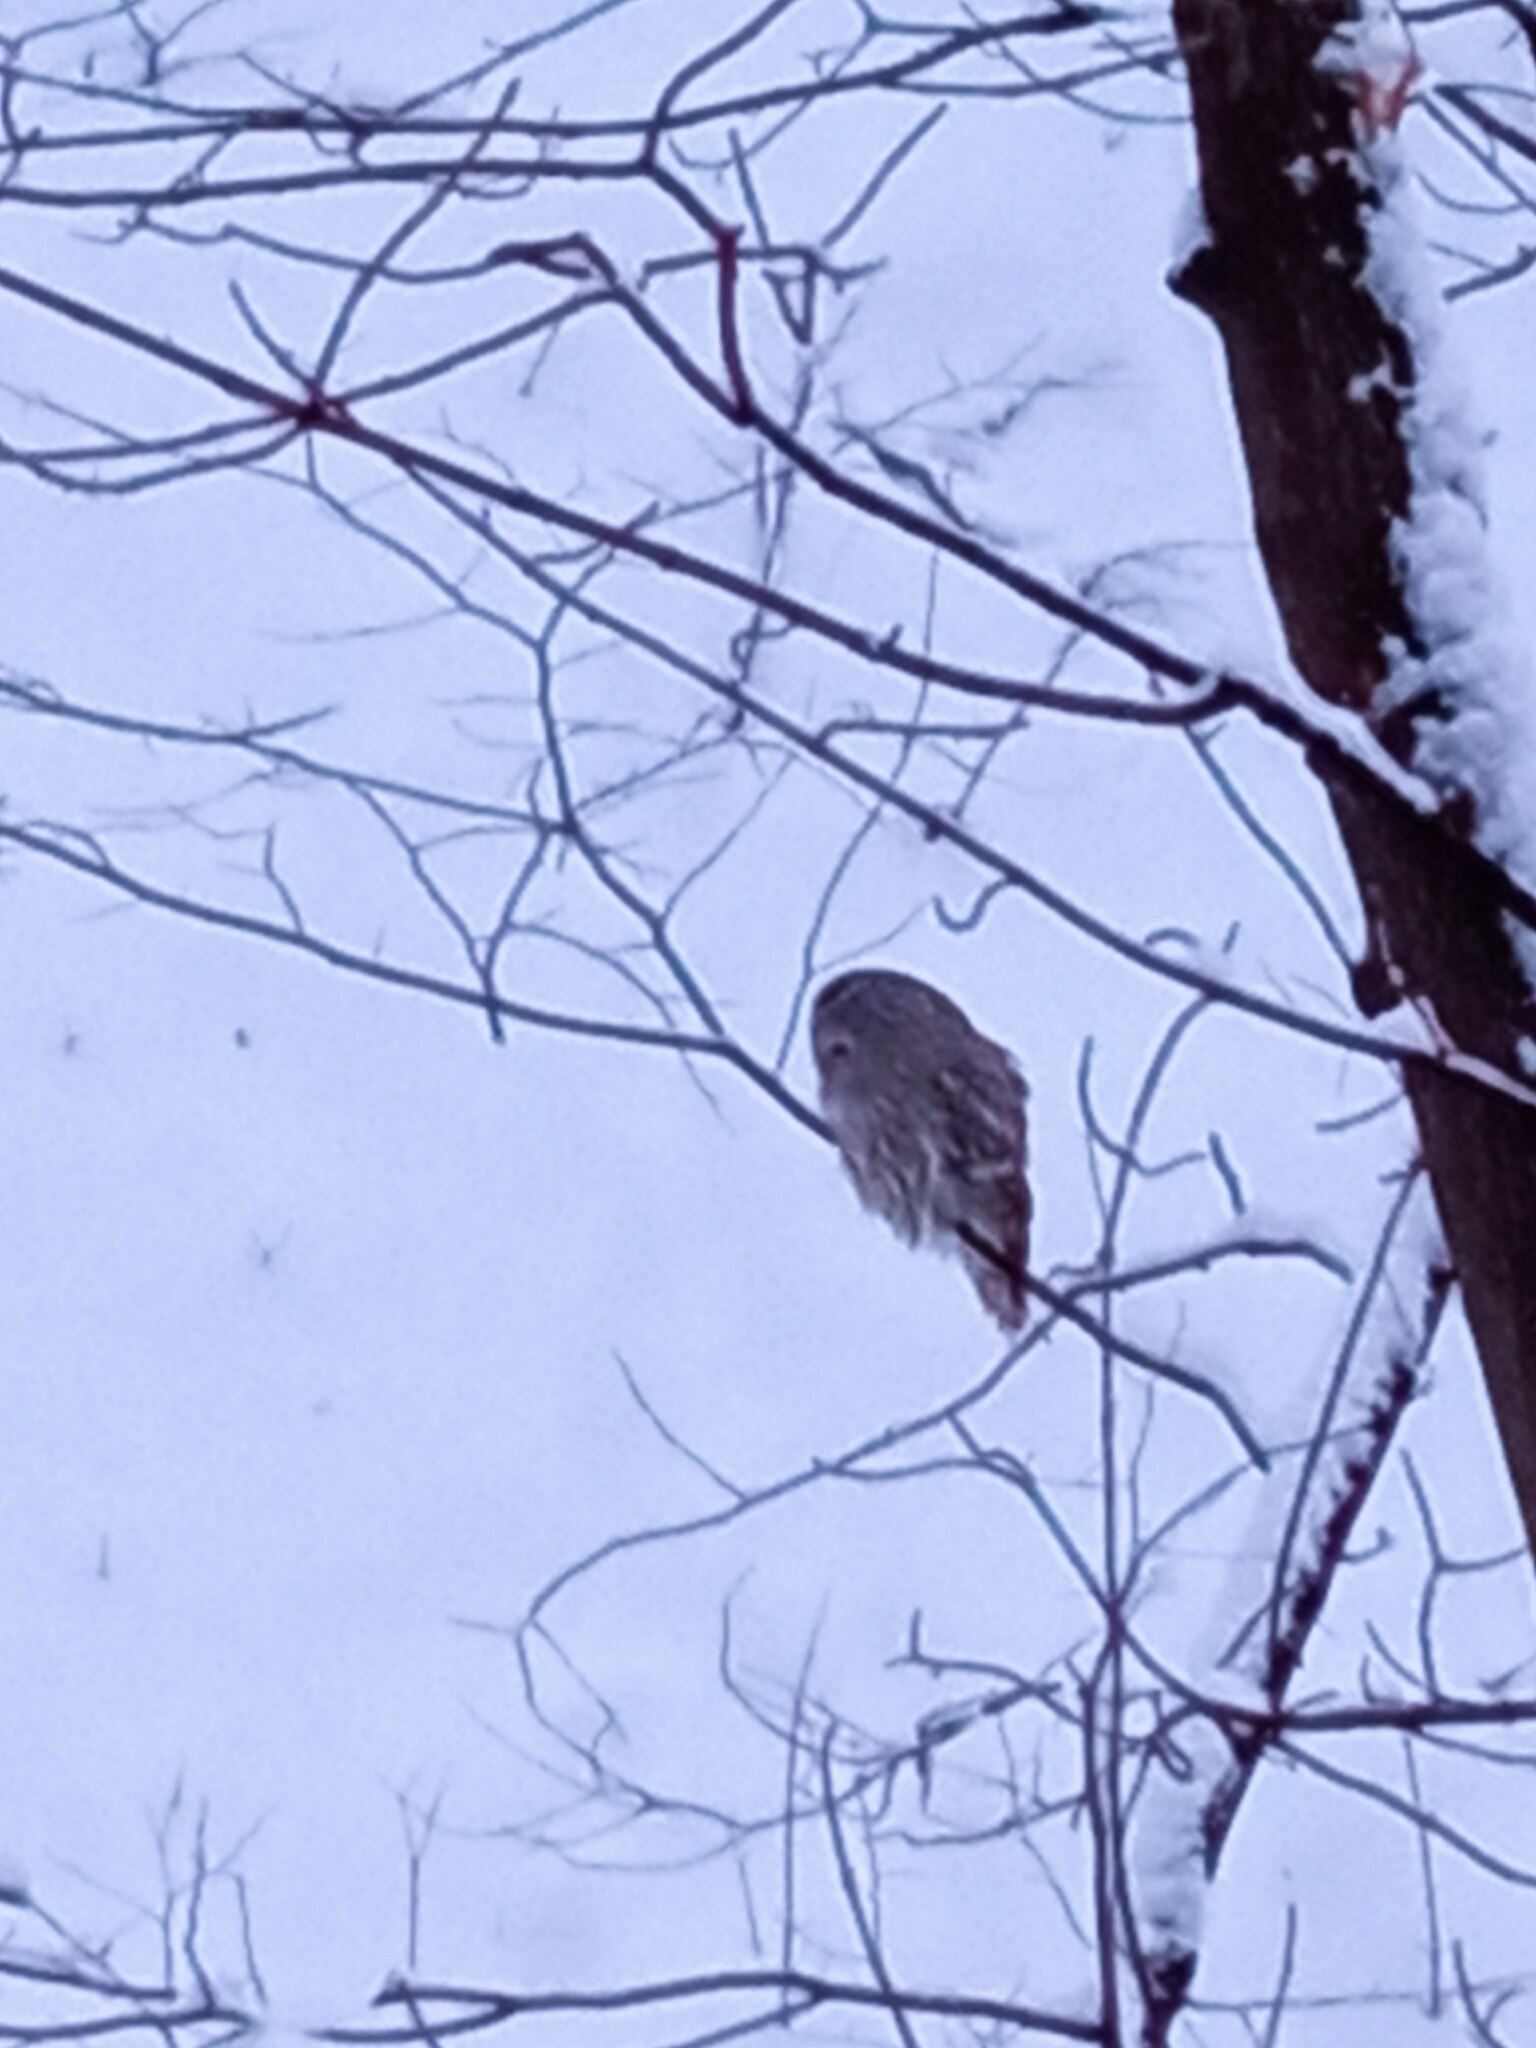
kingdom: Animalia
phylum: Chordata
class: Aves
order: Strigiformes
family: Strigidae
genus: Strix
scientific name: Strix uralensis
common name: Ural owl
